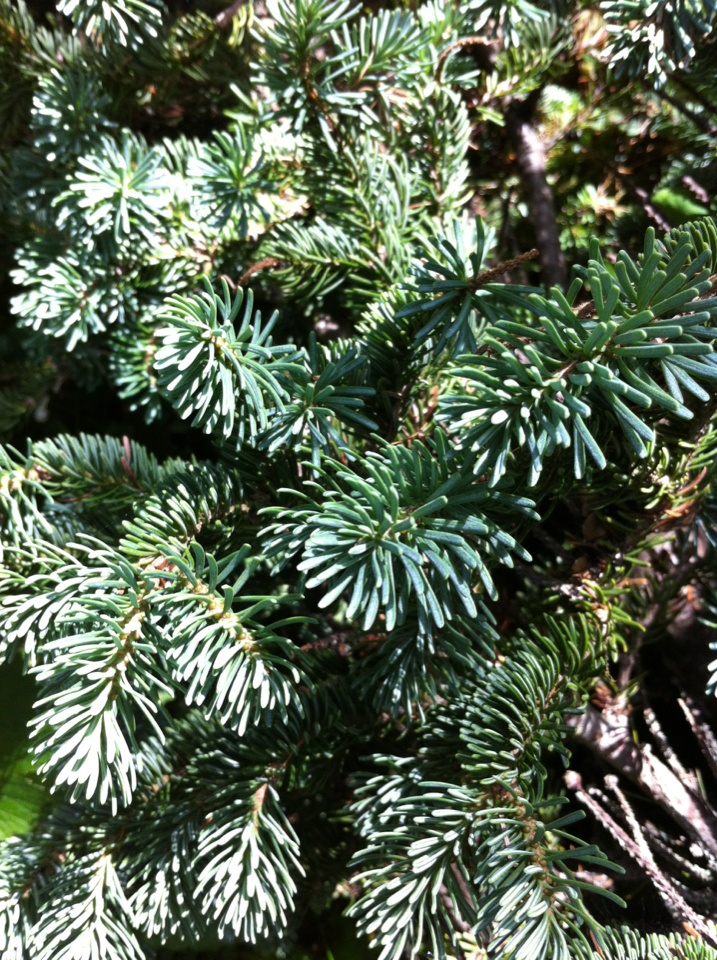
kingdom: Plantae
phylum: Tracheophyta
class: Pinopsida
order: Pinales
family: Pinaceae
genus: Abies
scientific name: Abies balsamea
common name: Balsam fir
